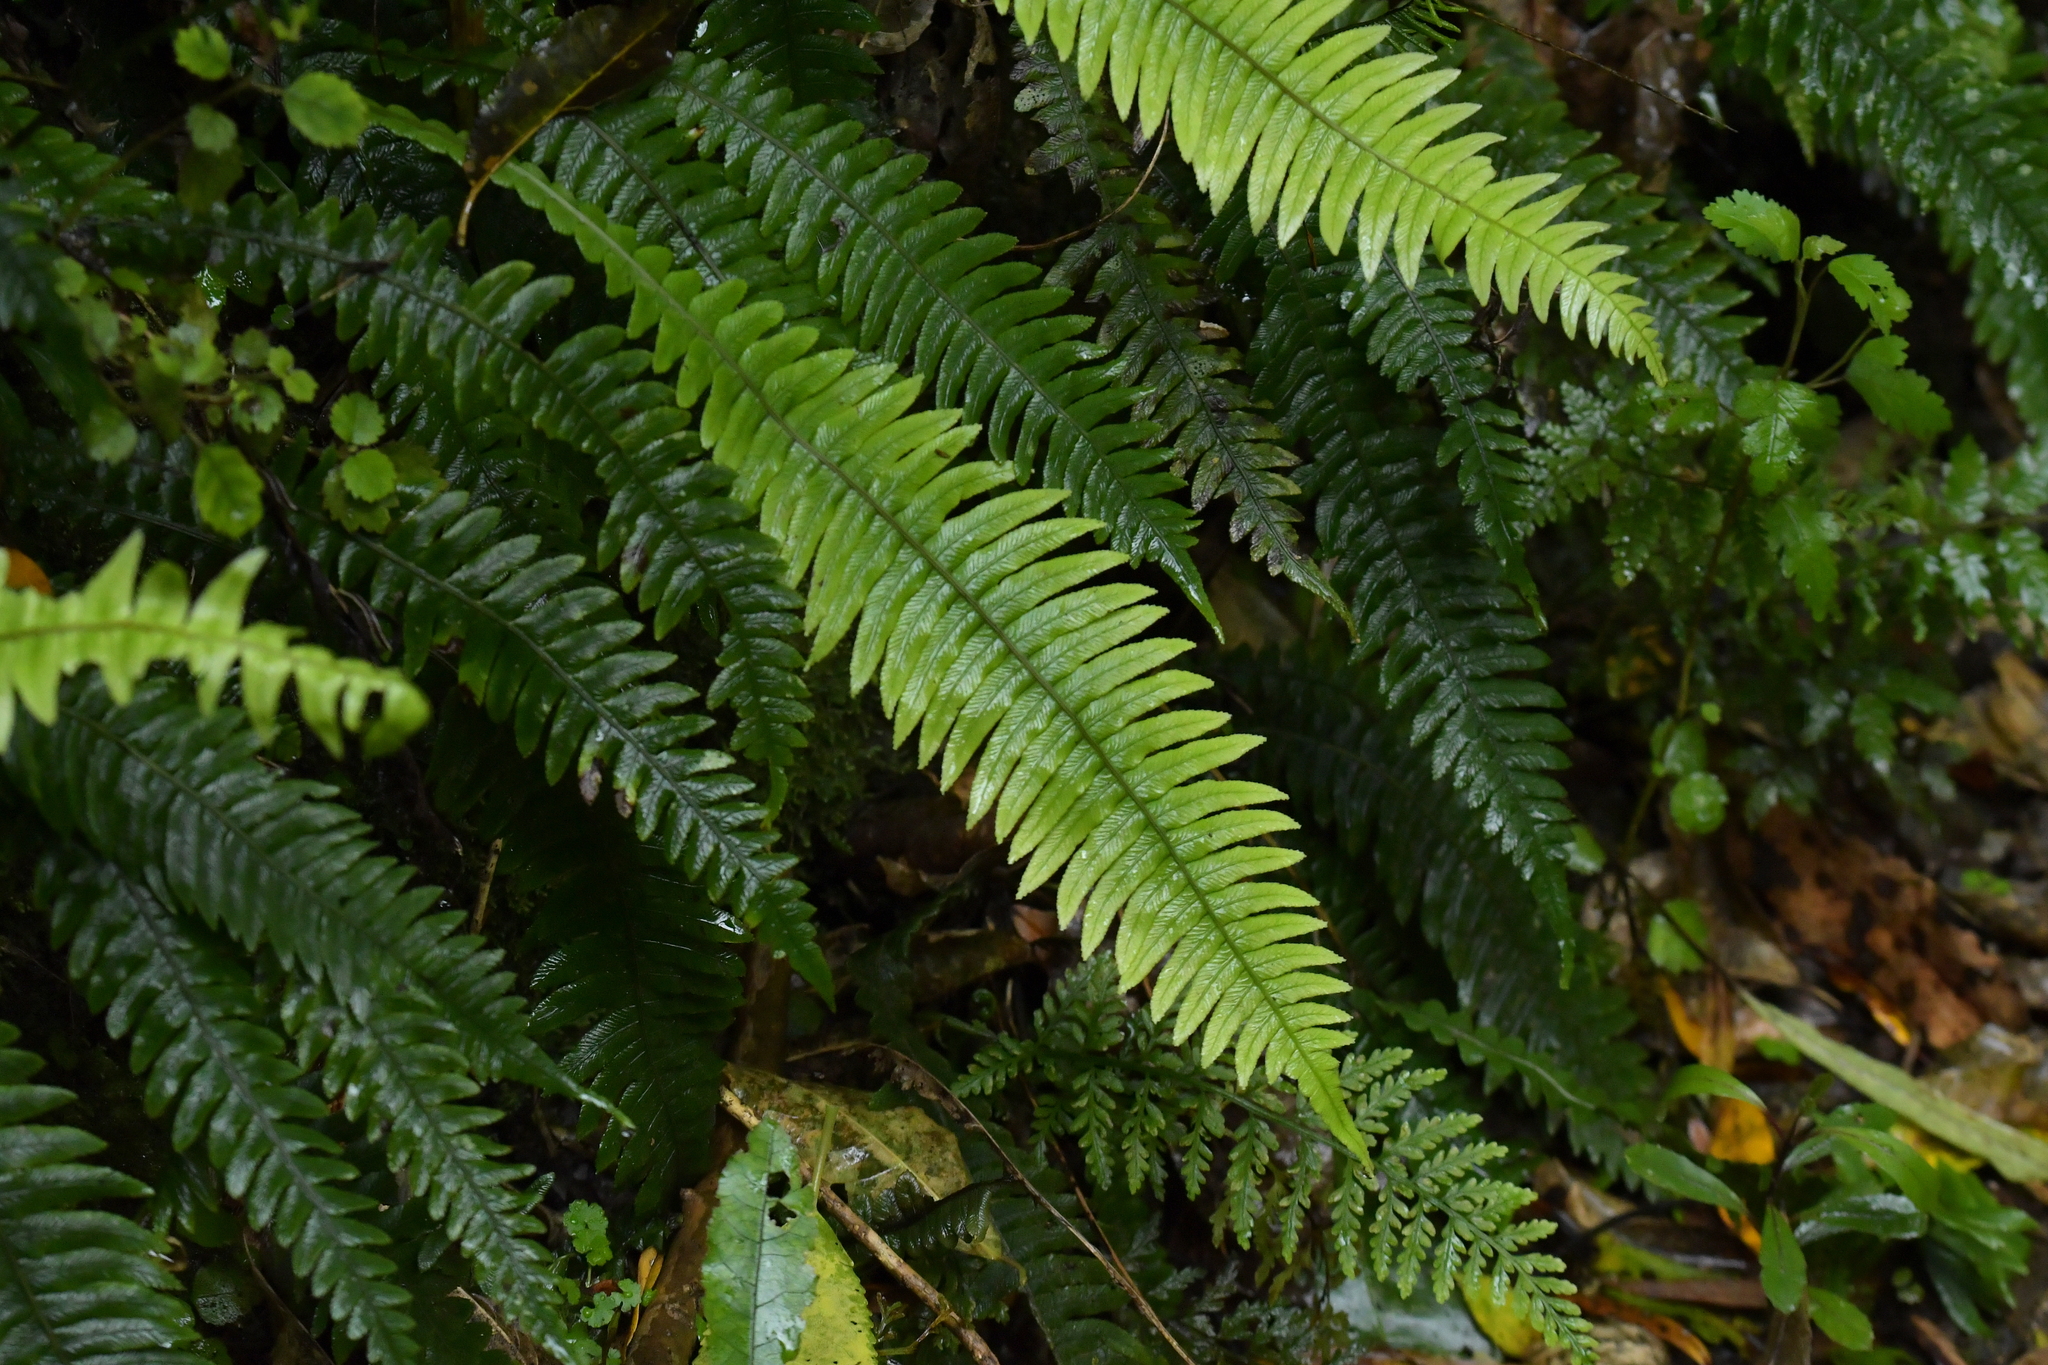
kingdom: Plantae
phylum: Tracheophyta
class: Polypodiopsida
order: Polypodiales
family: Blechnaceae
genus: Austroblechnum
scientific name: Austroblechnum lanceolatum
